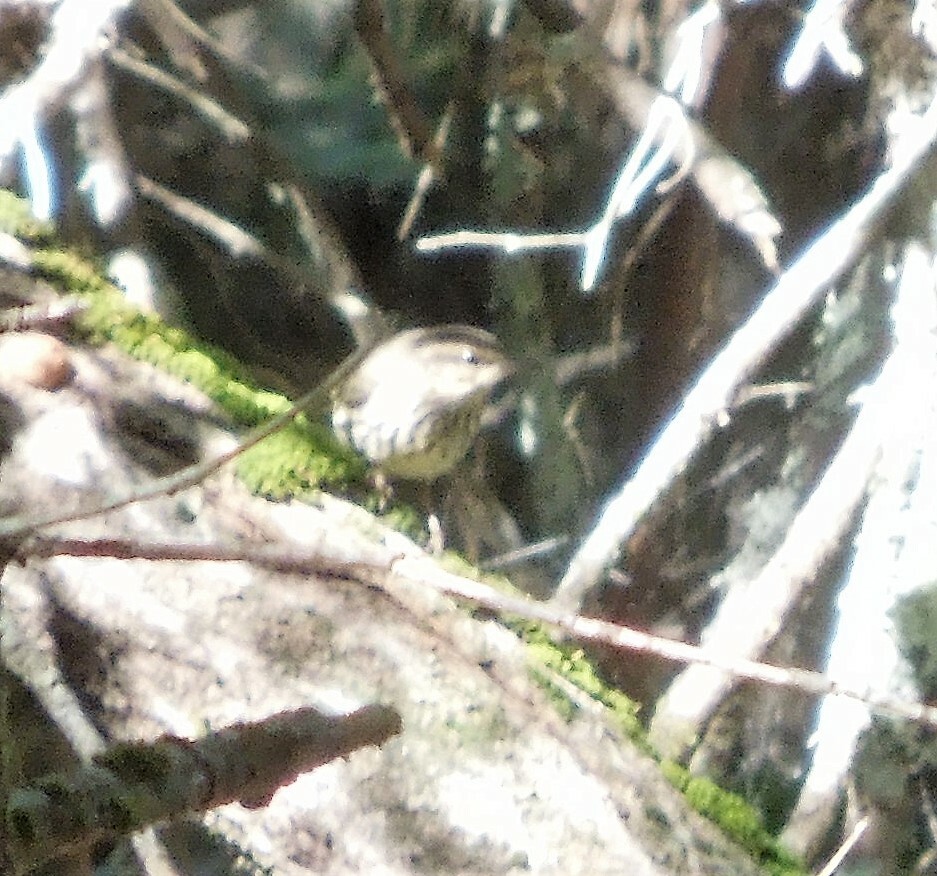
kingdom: Animalia
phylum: Chordata
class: Aves
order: Passeriformes
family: Parulidae
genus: Parkesia
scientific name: Parkesia noveboracensis
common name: Northern waterthrush
